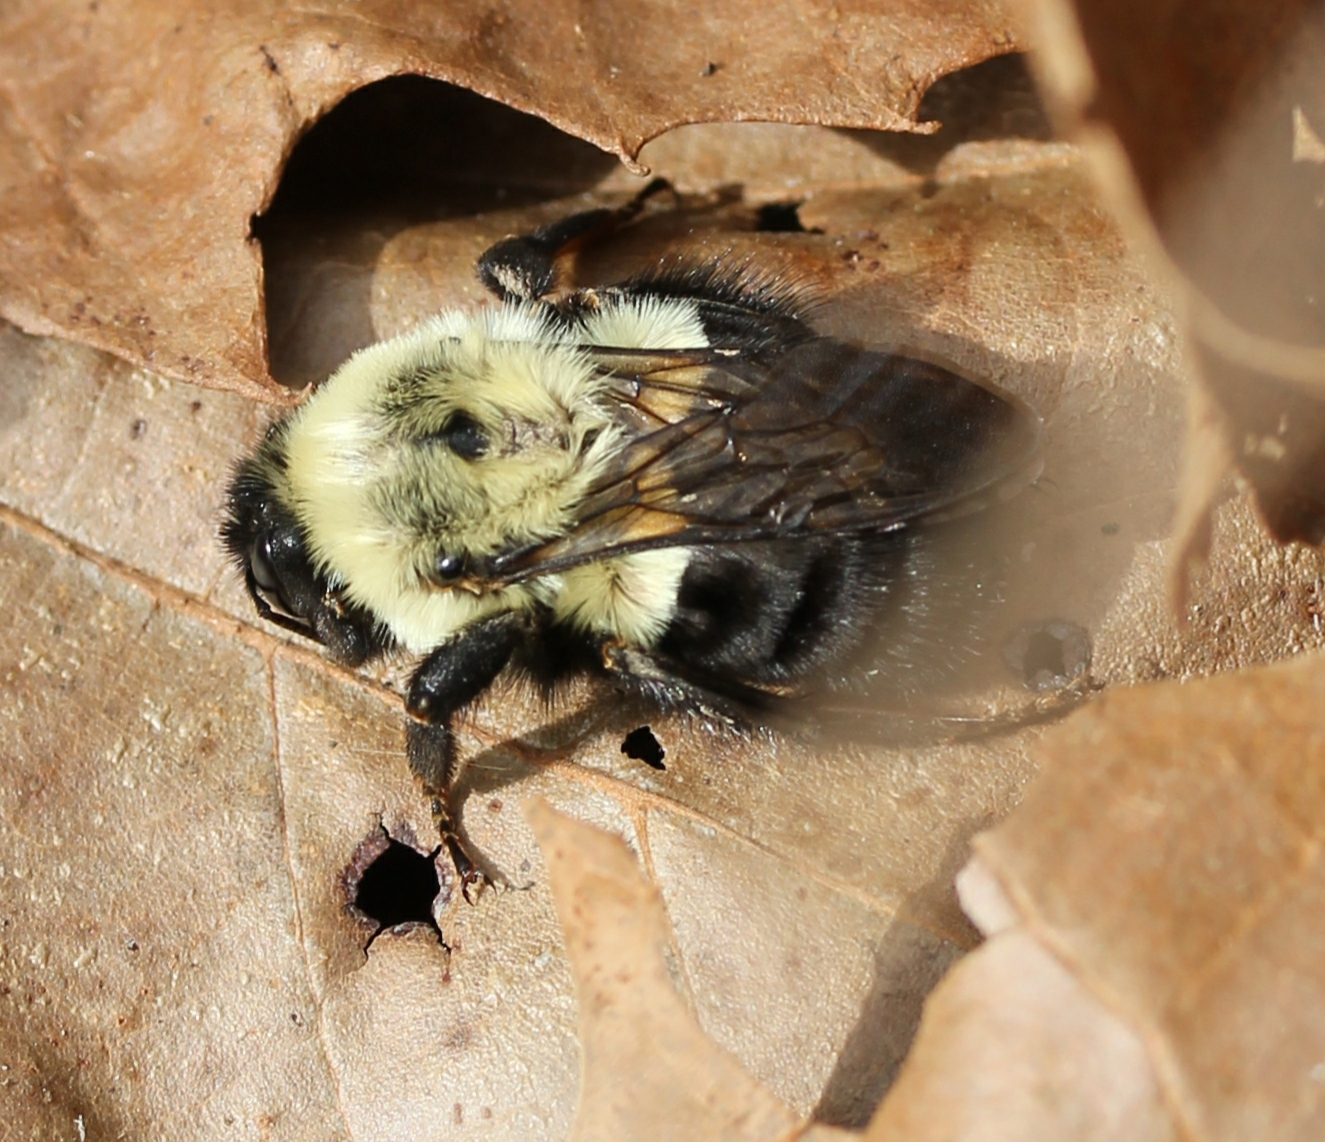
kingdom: Animalia
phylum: Arthropoda
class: Insecta
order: Hymenoptera
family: Apidae
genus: Bombus
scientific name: Bombus impatiens
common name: Common eastern bumble bee
